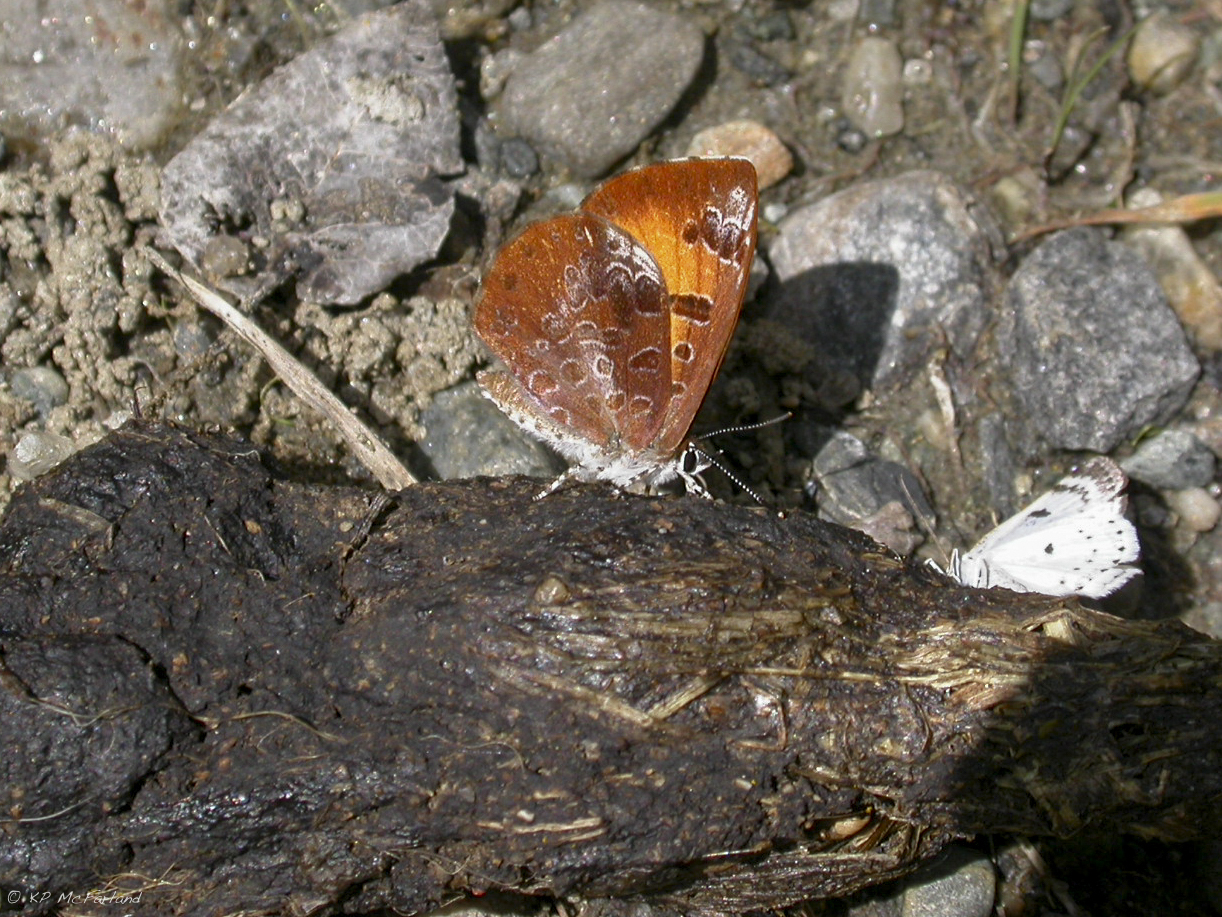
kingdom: Animalia
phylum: Arthropoda
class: Insecta
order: Lepidoptera
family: Lycaenidae
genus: Feniseca
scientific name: Feniseca tarquinius
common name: Harvester
